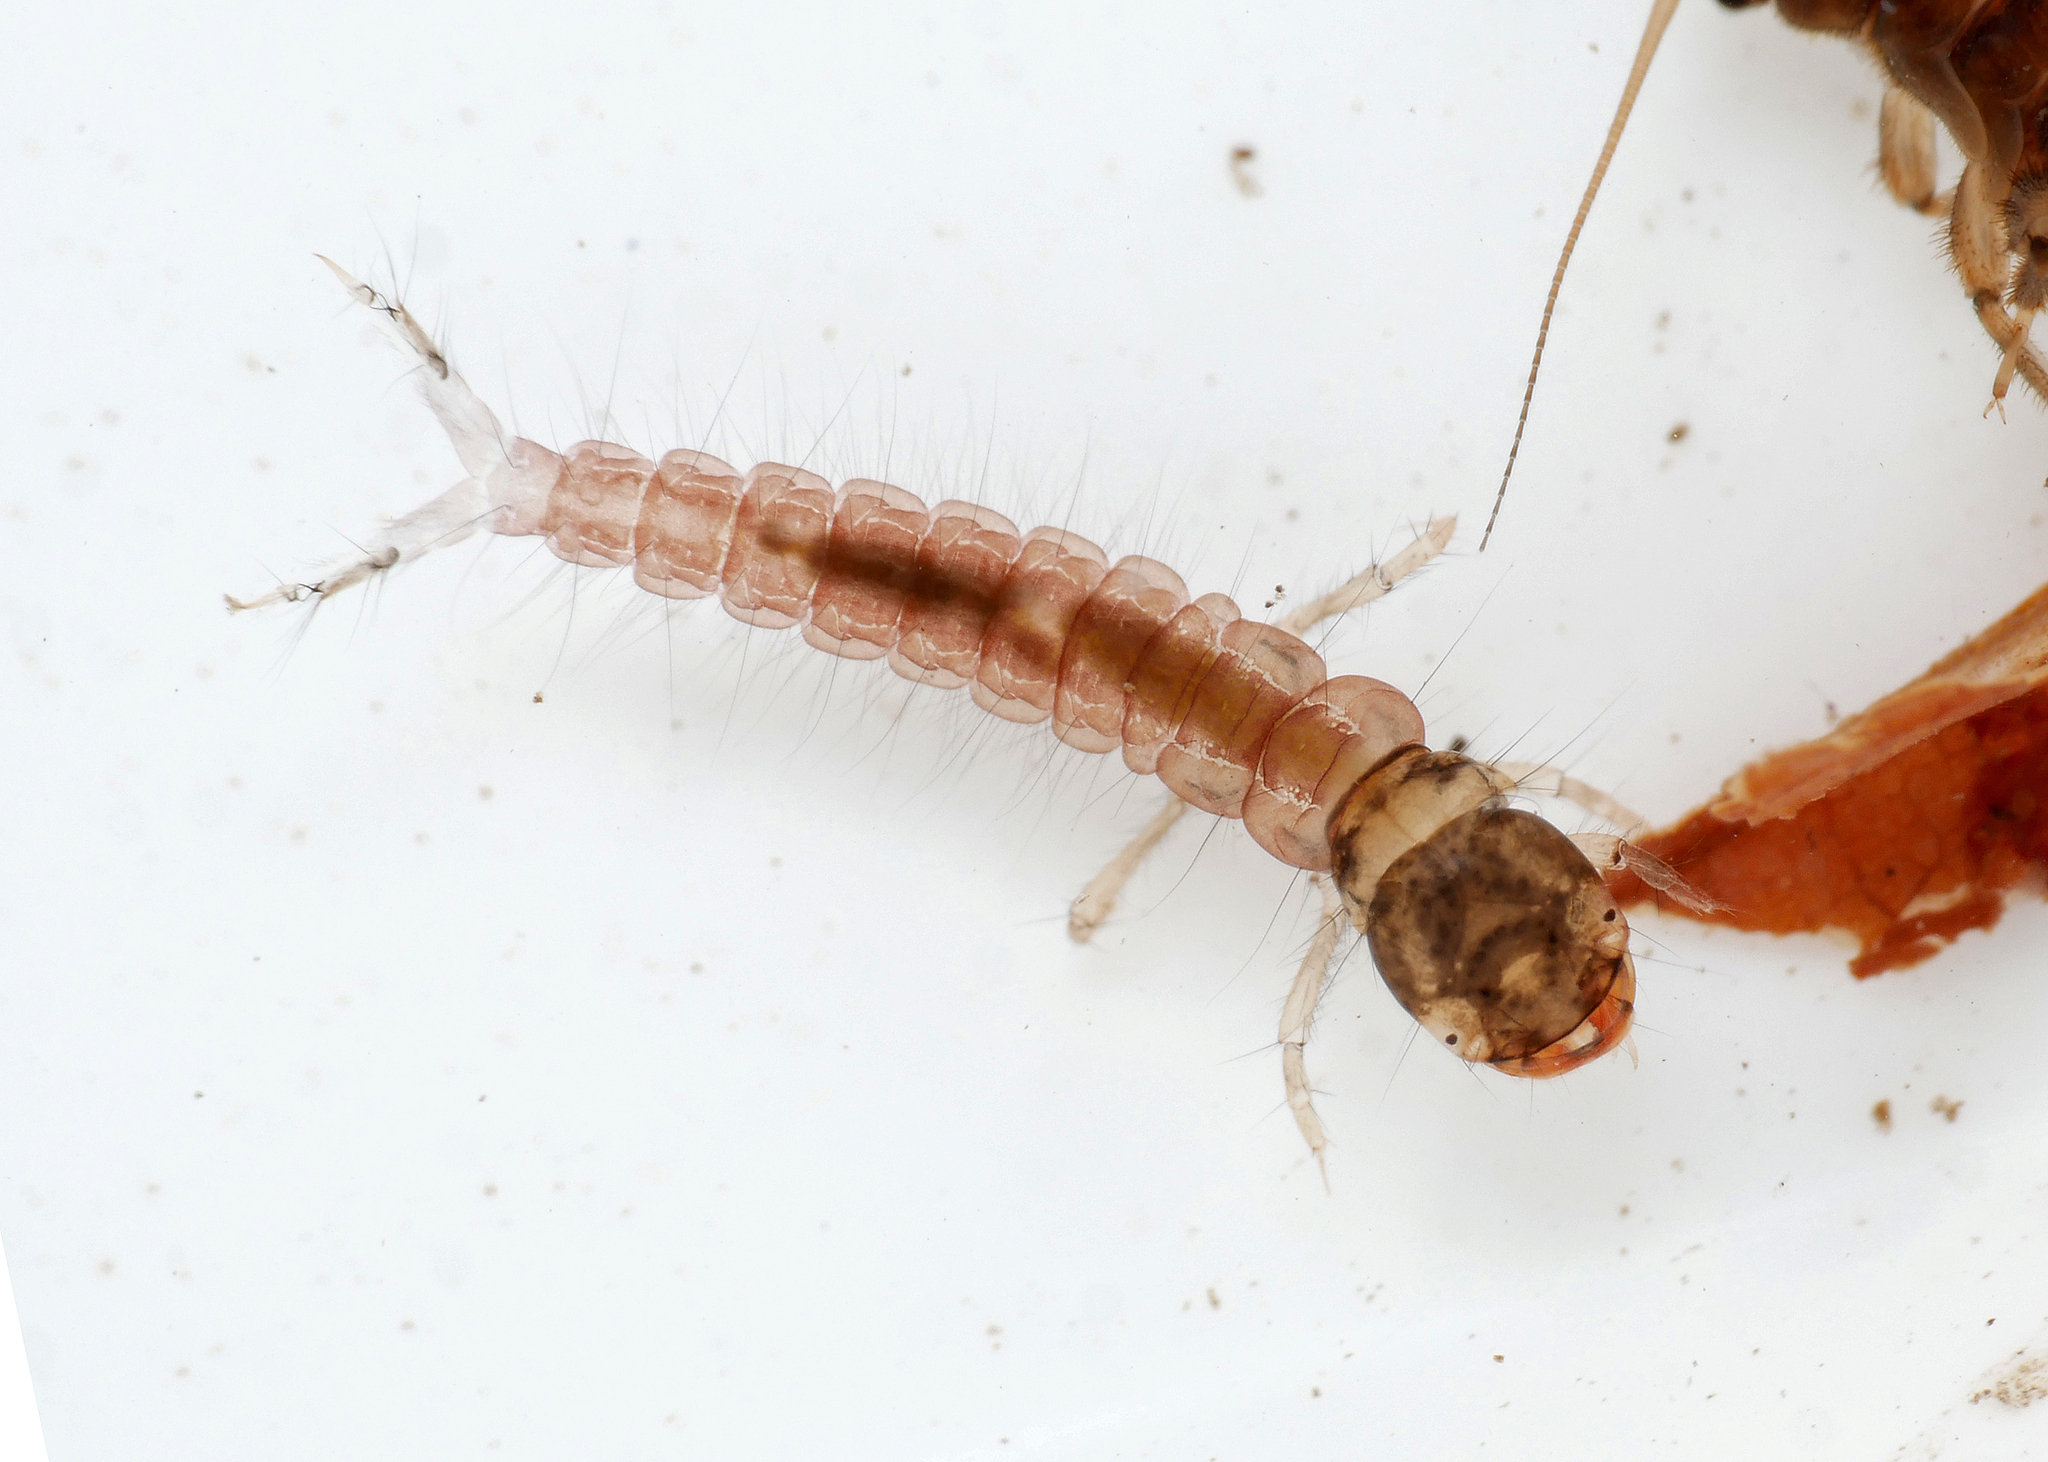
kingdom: Animalia
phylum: Arthropoda
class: Insecta
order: Trichoptera
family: Polycentropodidae
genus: Plectrocnemia
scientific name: Plectrocnemia conspersa
